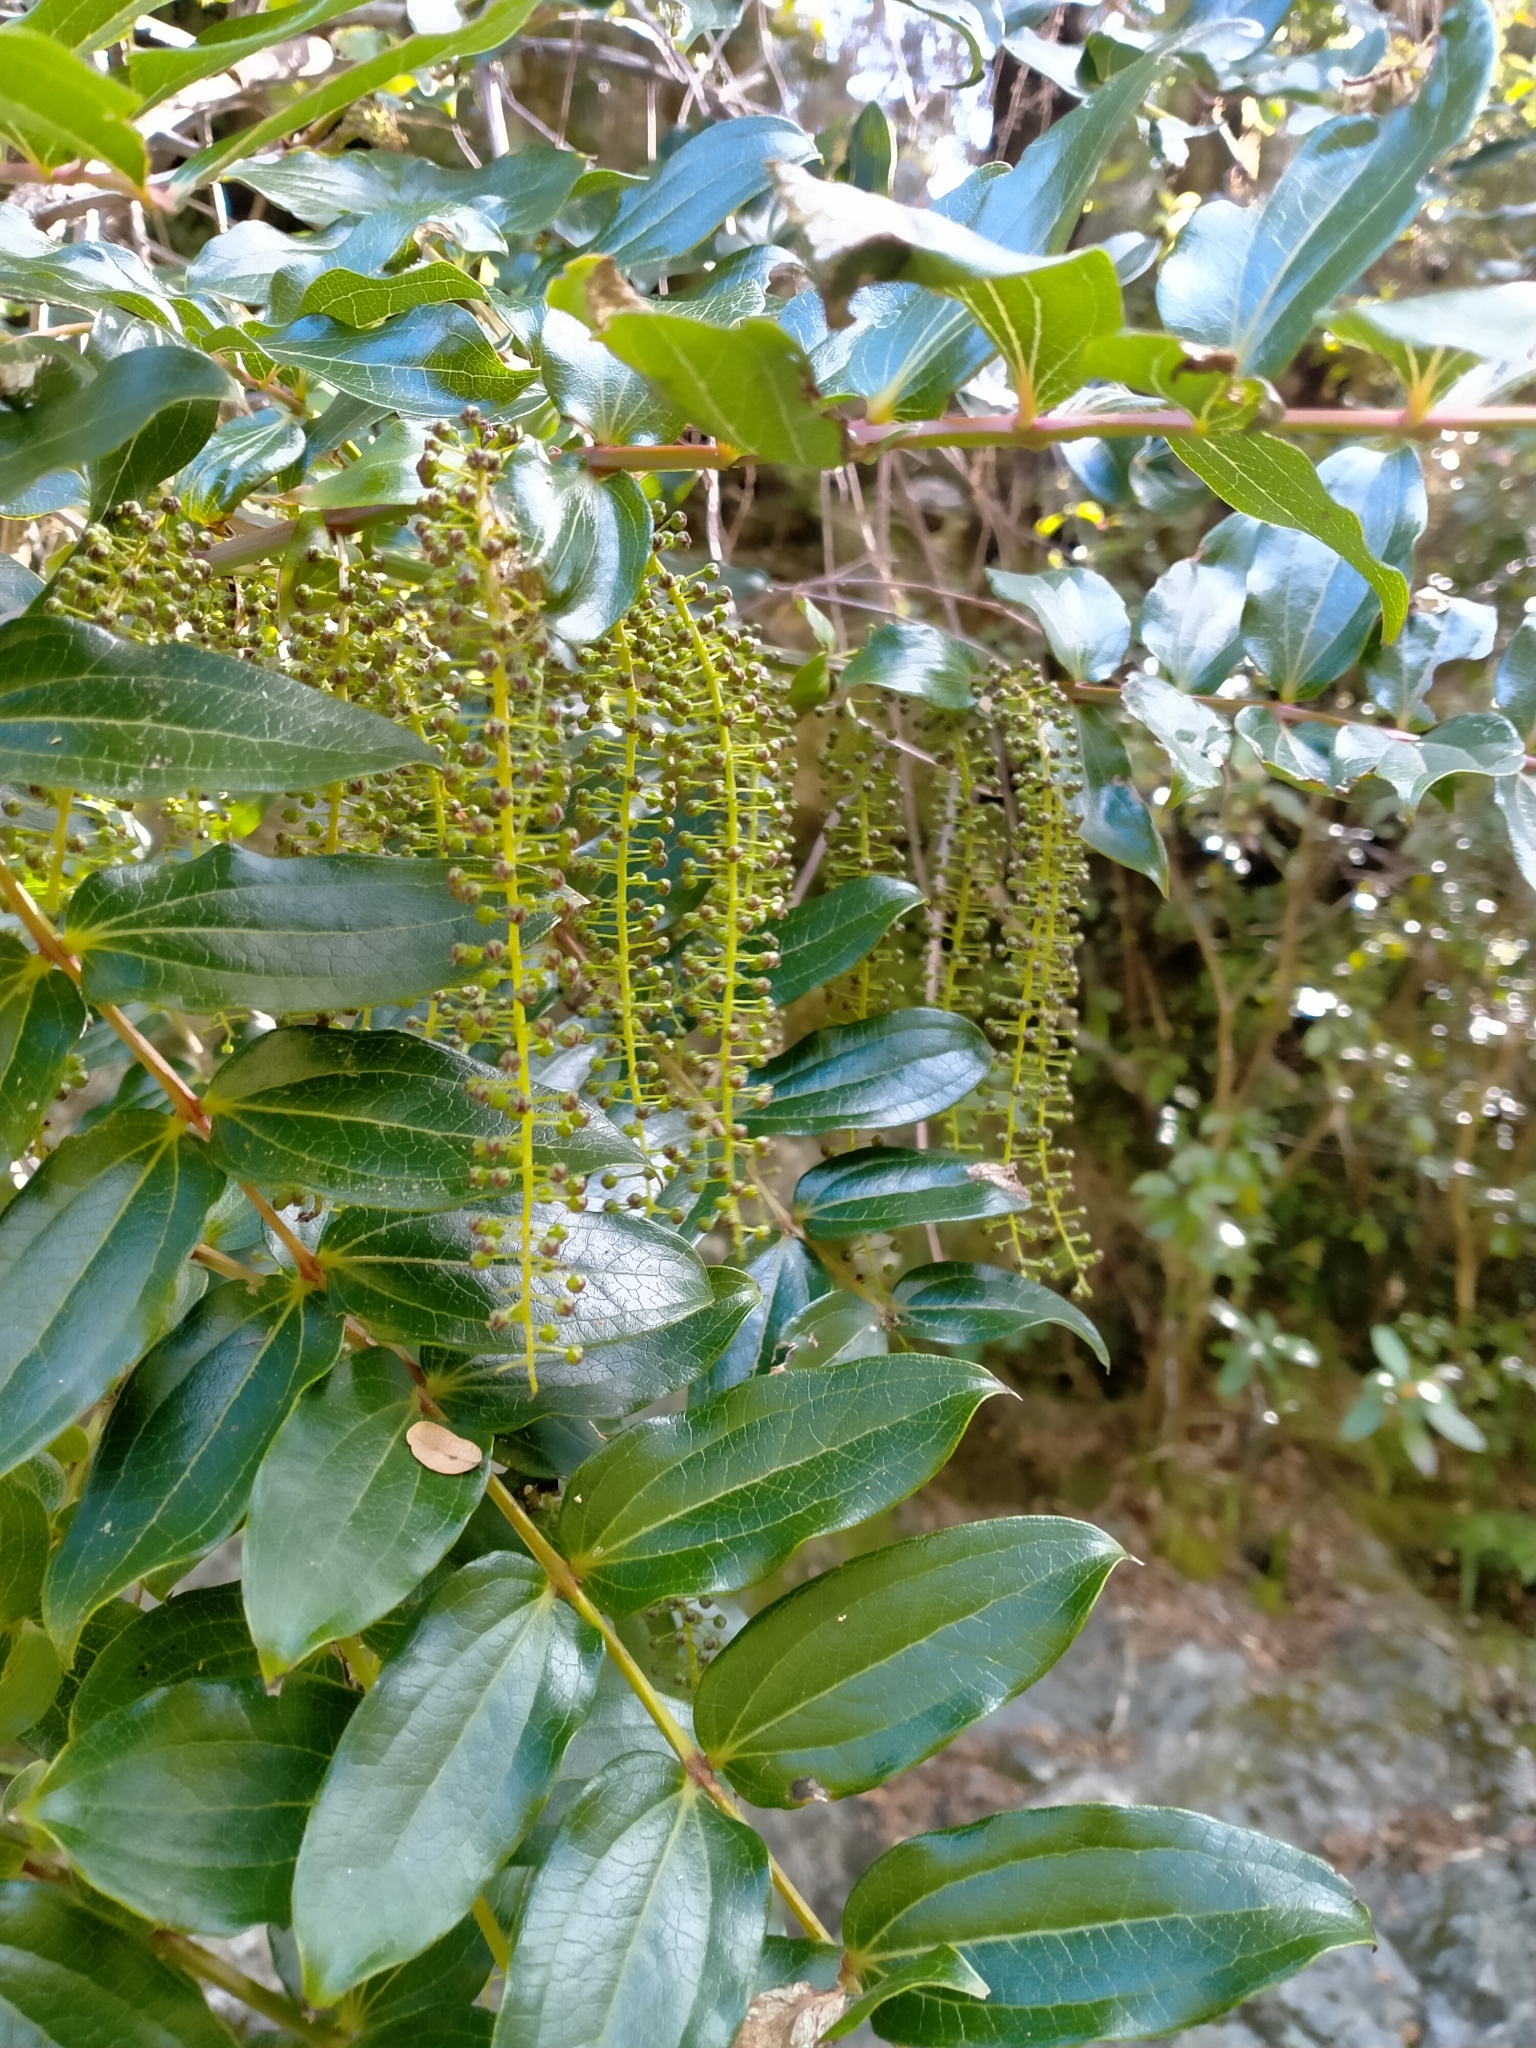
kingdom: Plantae
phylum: Tracheophyta
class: Magnoliopsida
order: Cucurbitales
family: Coriariaceae
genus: Coriaria
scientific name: Coriaria arborea
